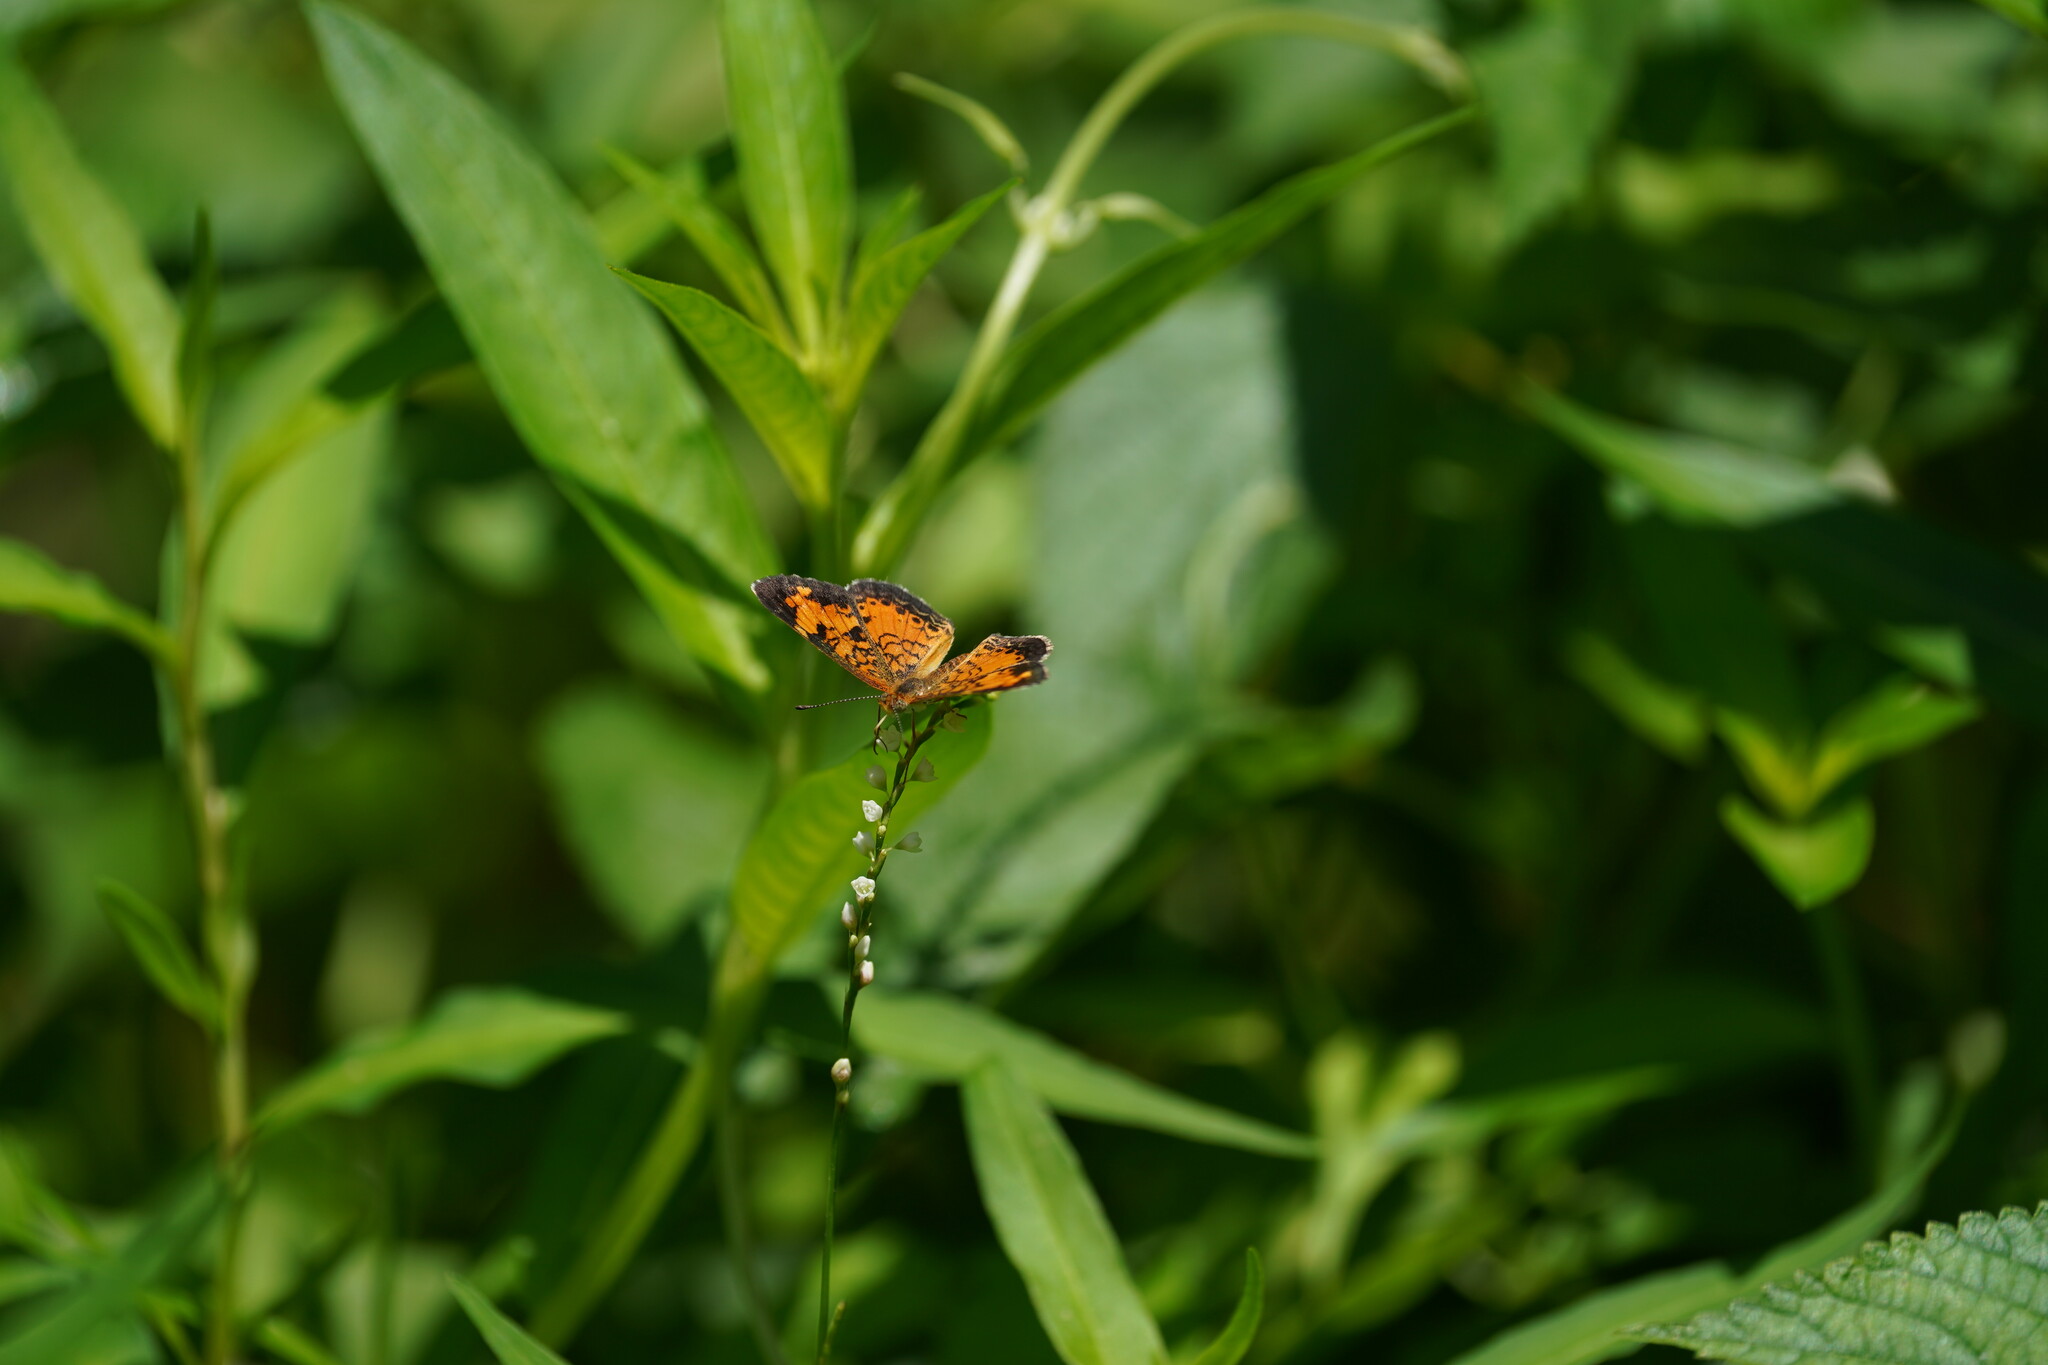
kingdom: Animalia
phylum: Arthropoda
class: Insecta
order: Lepidoptera
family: Nymphalidae
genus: Phyciodes
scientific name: Phyciodes tharos
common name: Pearl crescent
